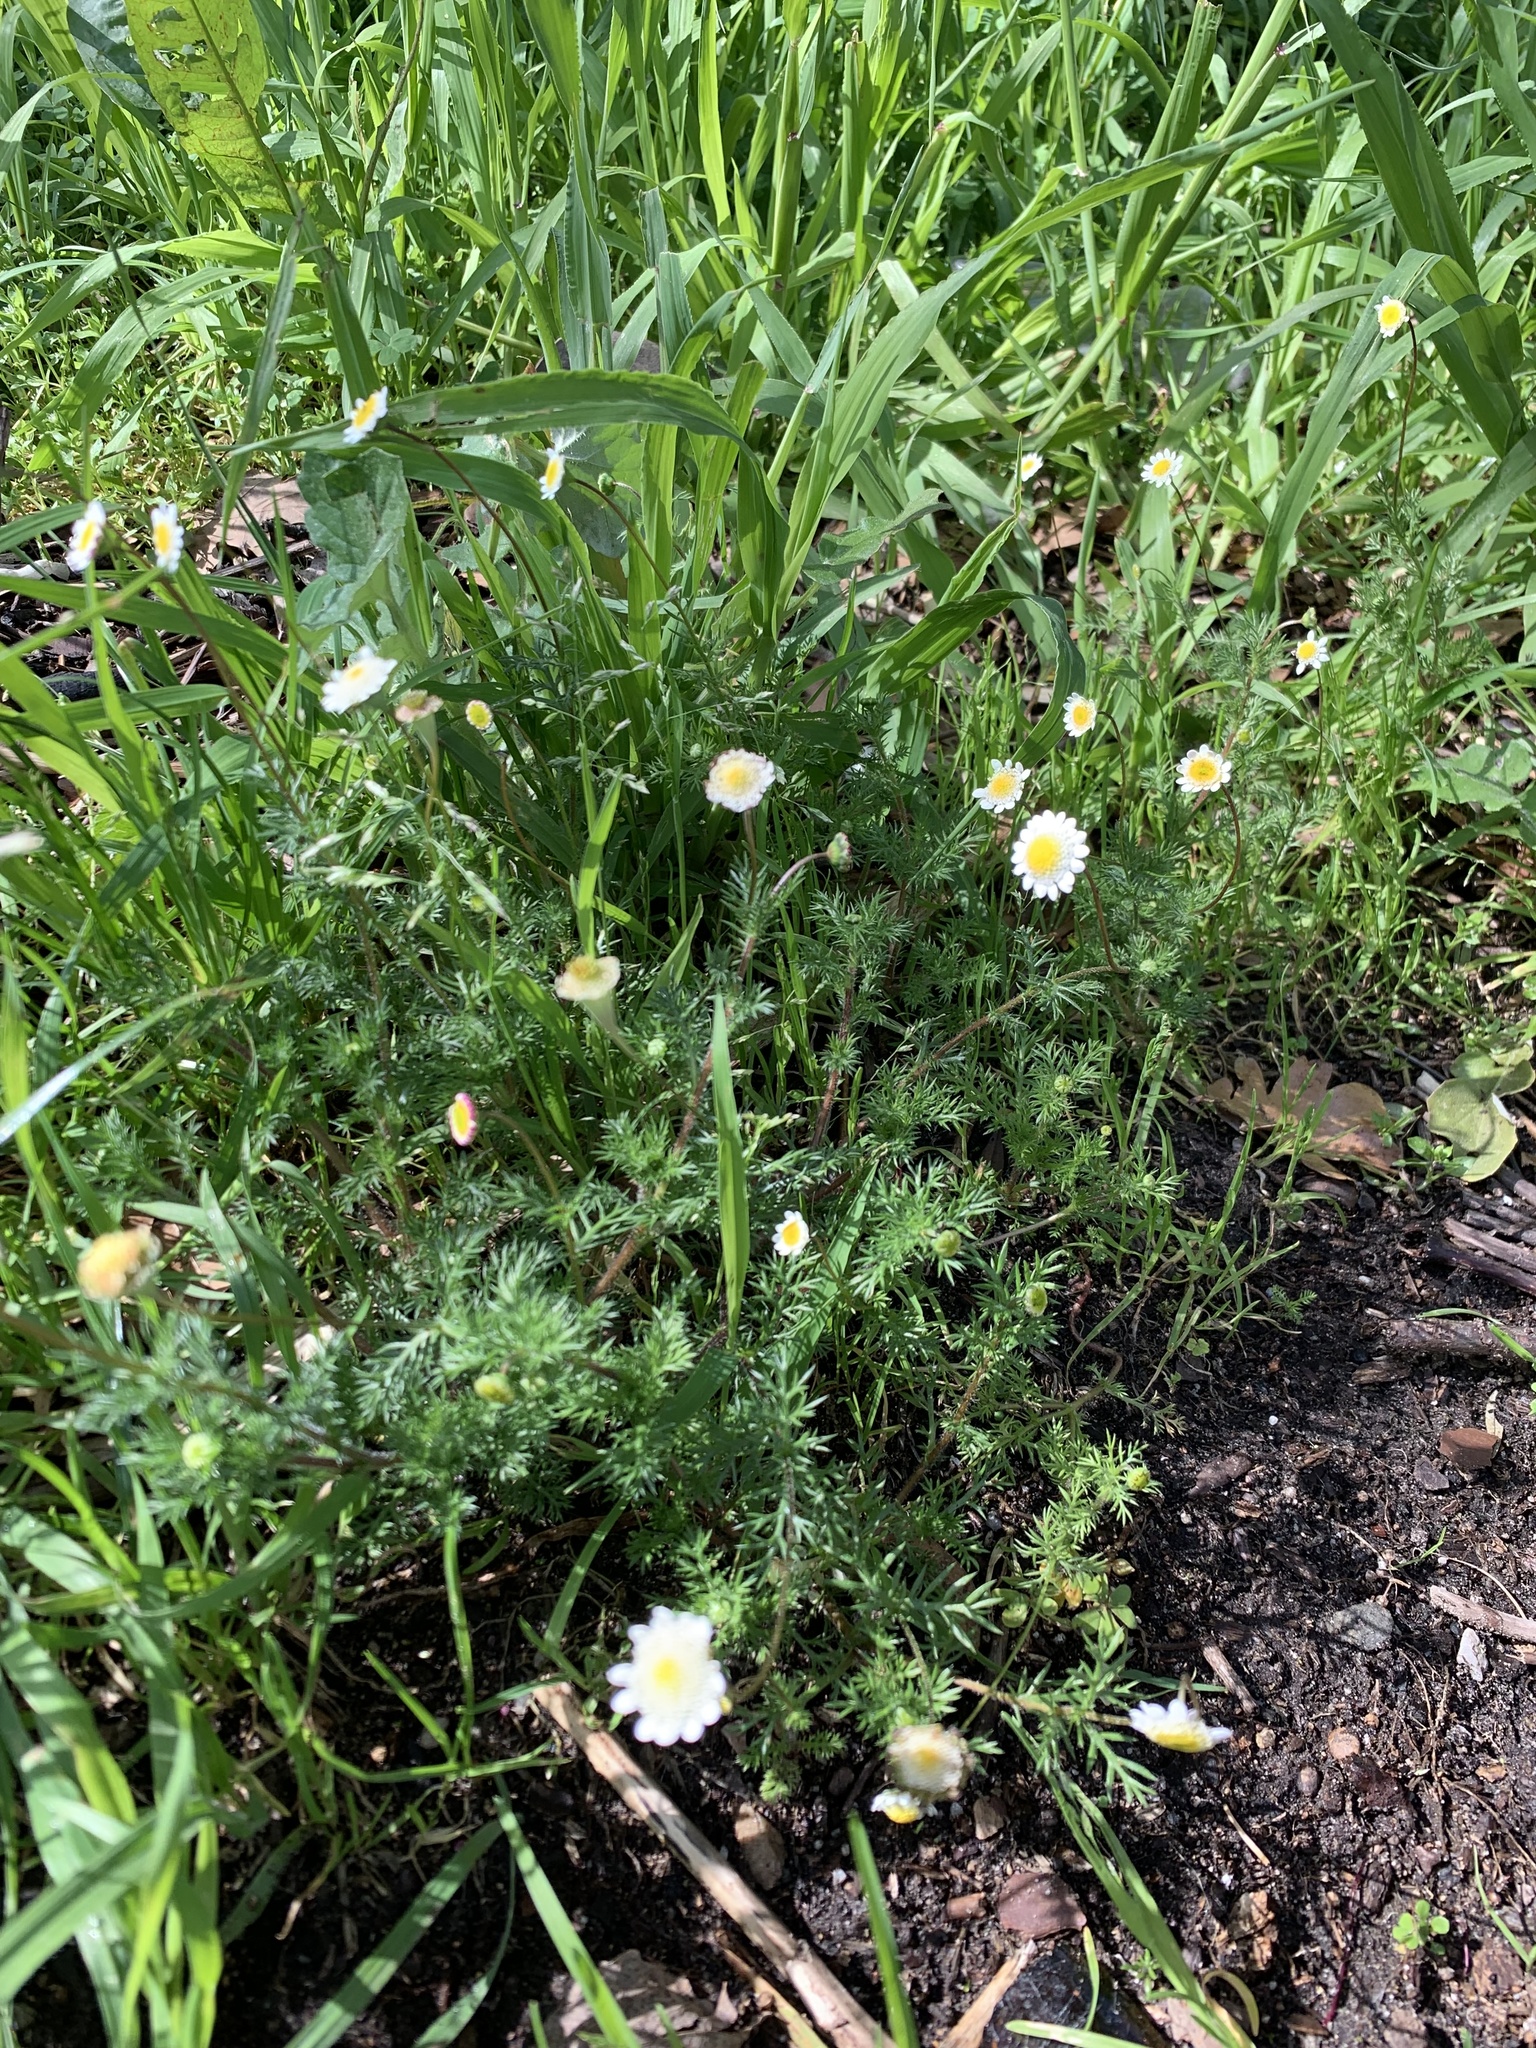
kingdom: Plantae
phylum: Tracheophyta
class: Magnoliopsida
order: Asterales
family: Asteraceae
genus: Cotula
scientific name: Cotula turbinata
